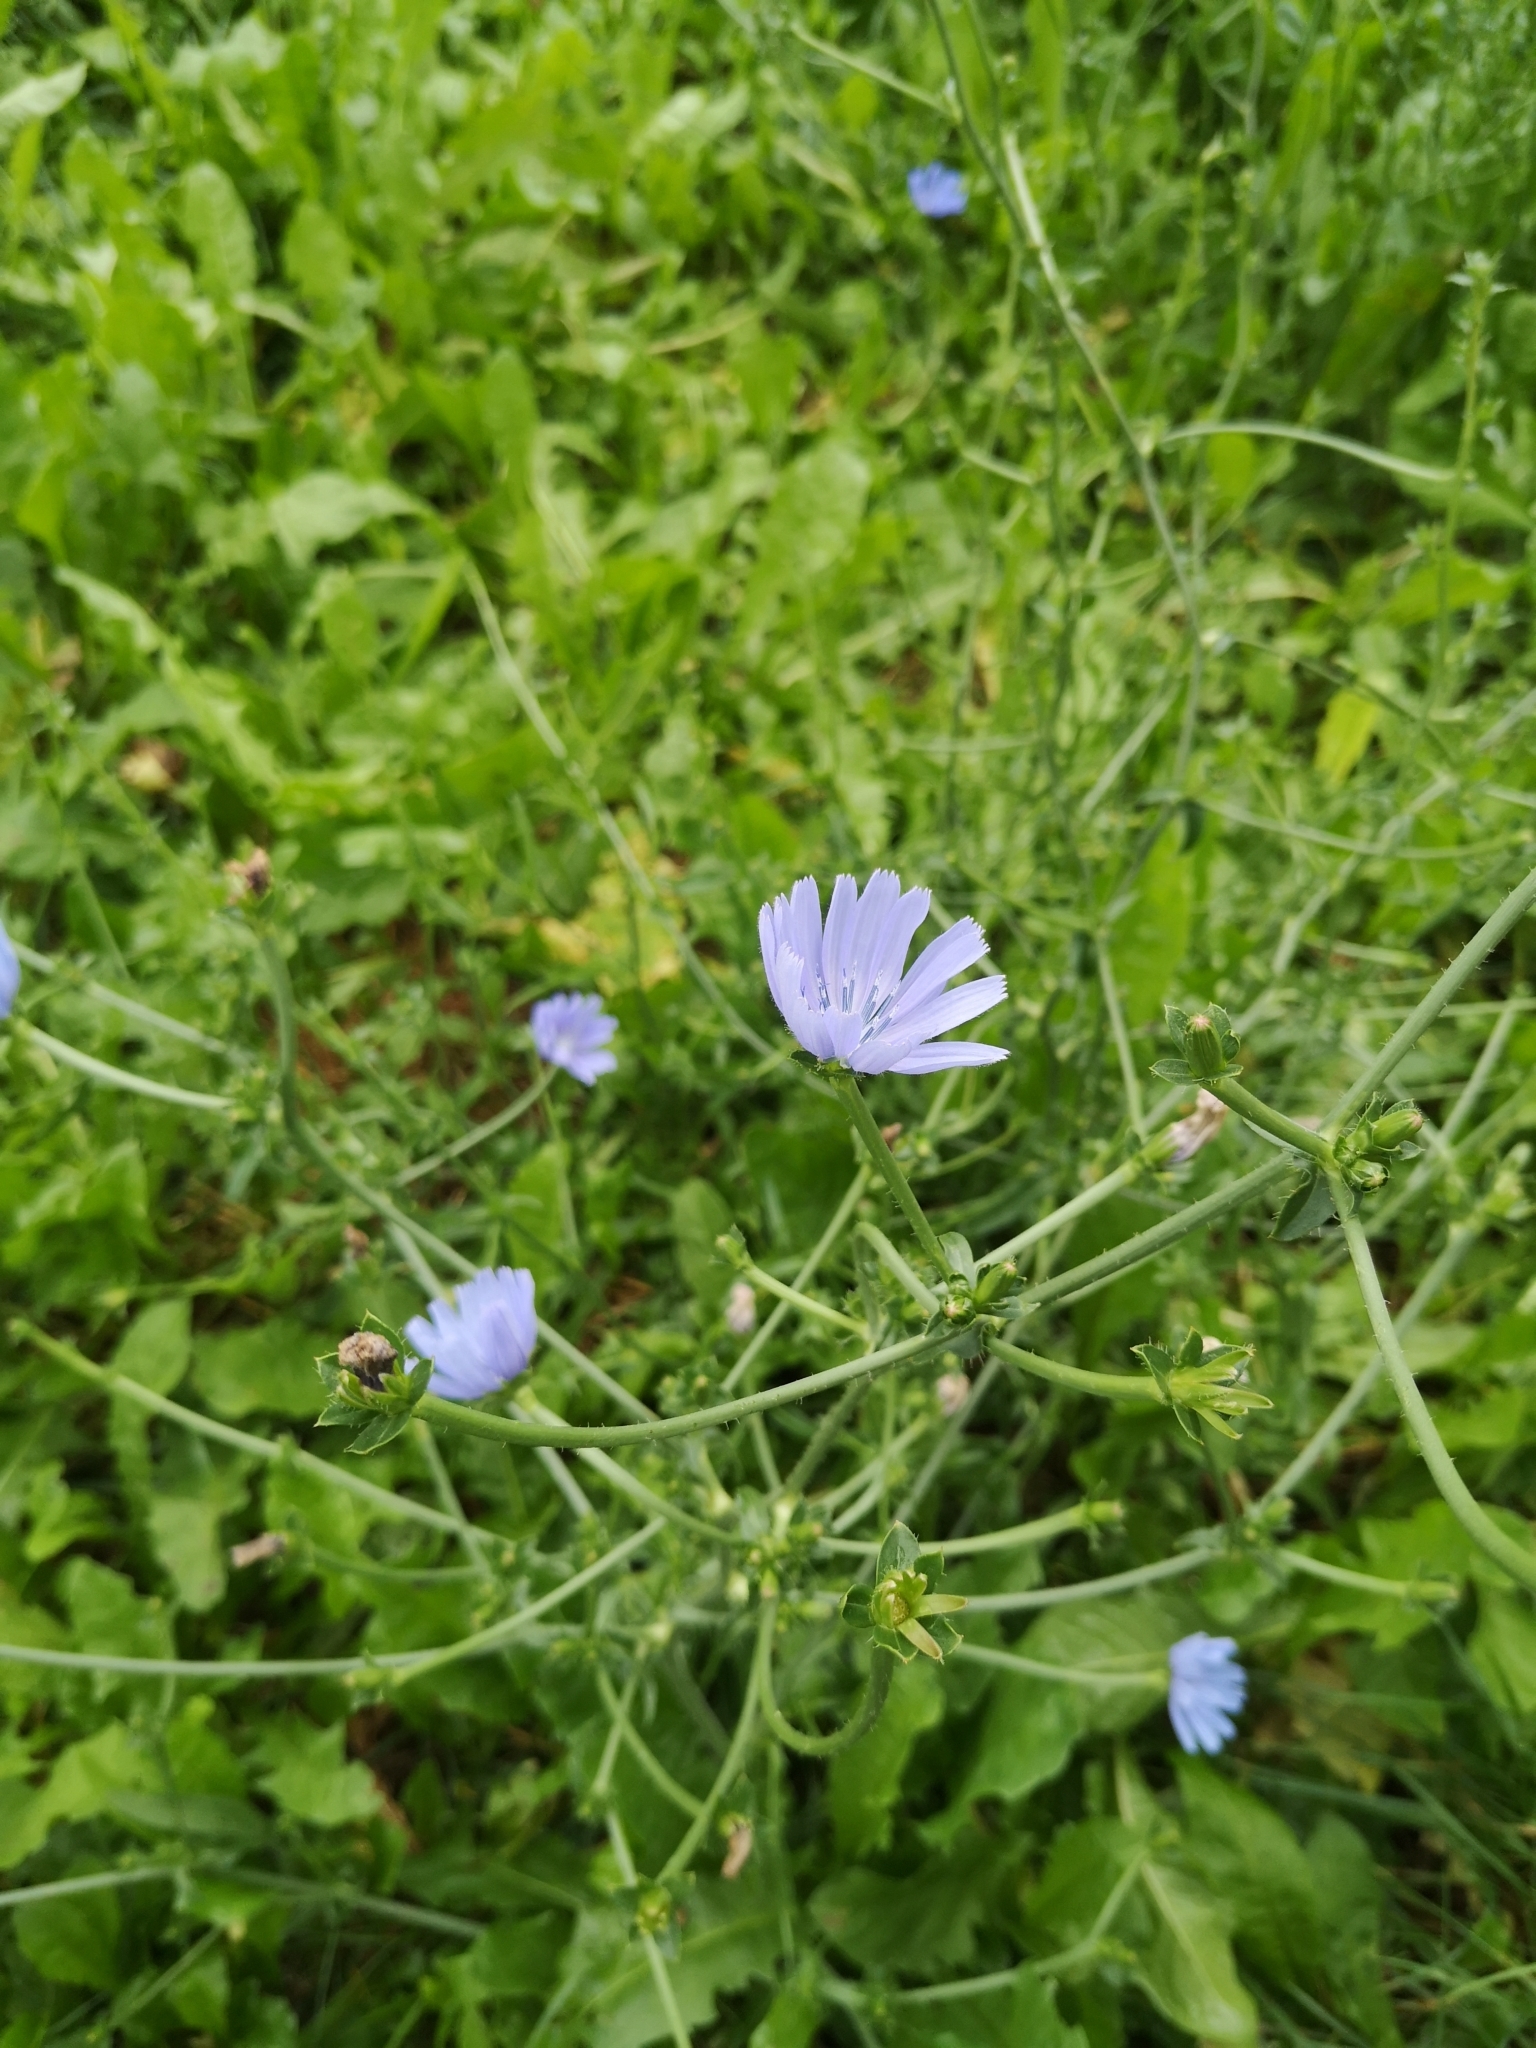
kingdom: Plantae
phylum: Tracheophyta
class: Magnoliopsida
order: Asterales
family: Asteraceae
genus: Cichorium
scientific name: Cichorium intybus
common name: Chicory
